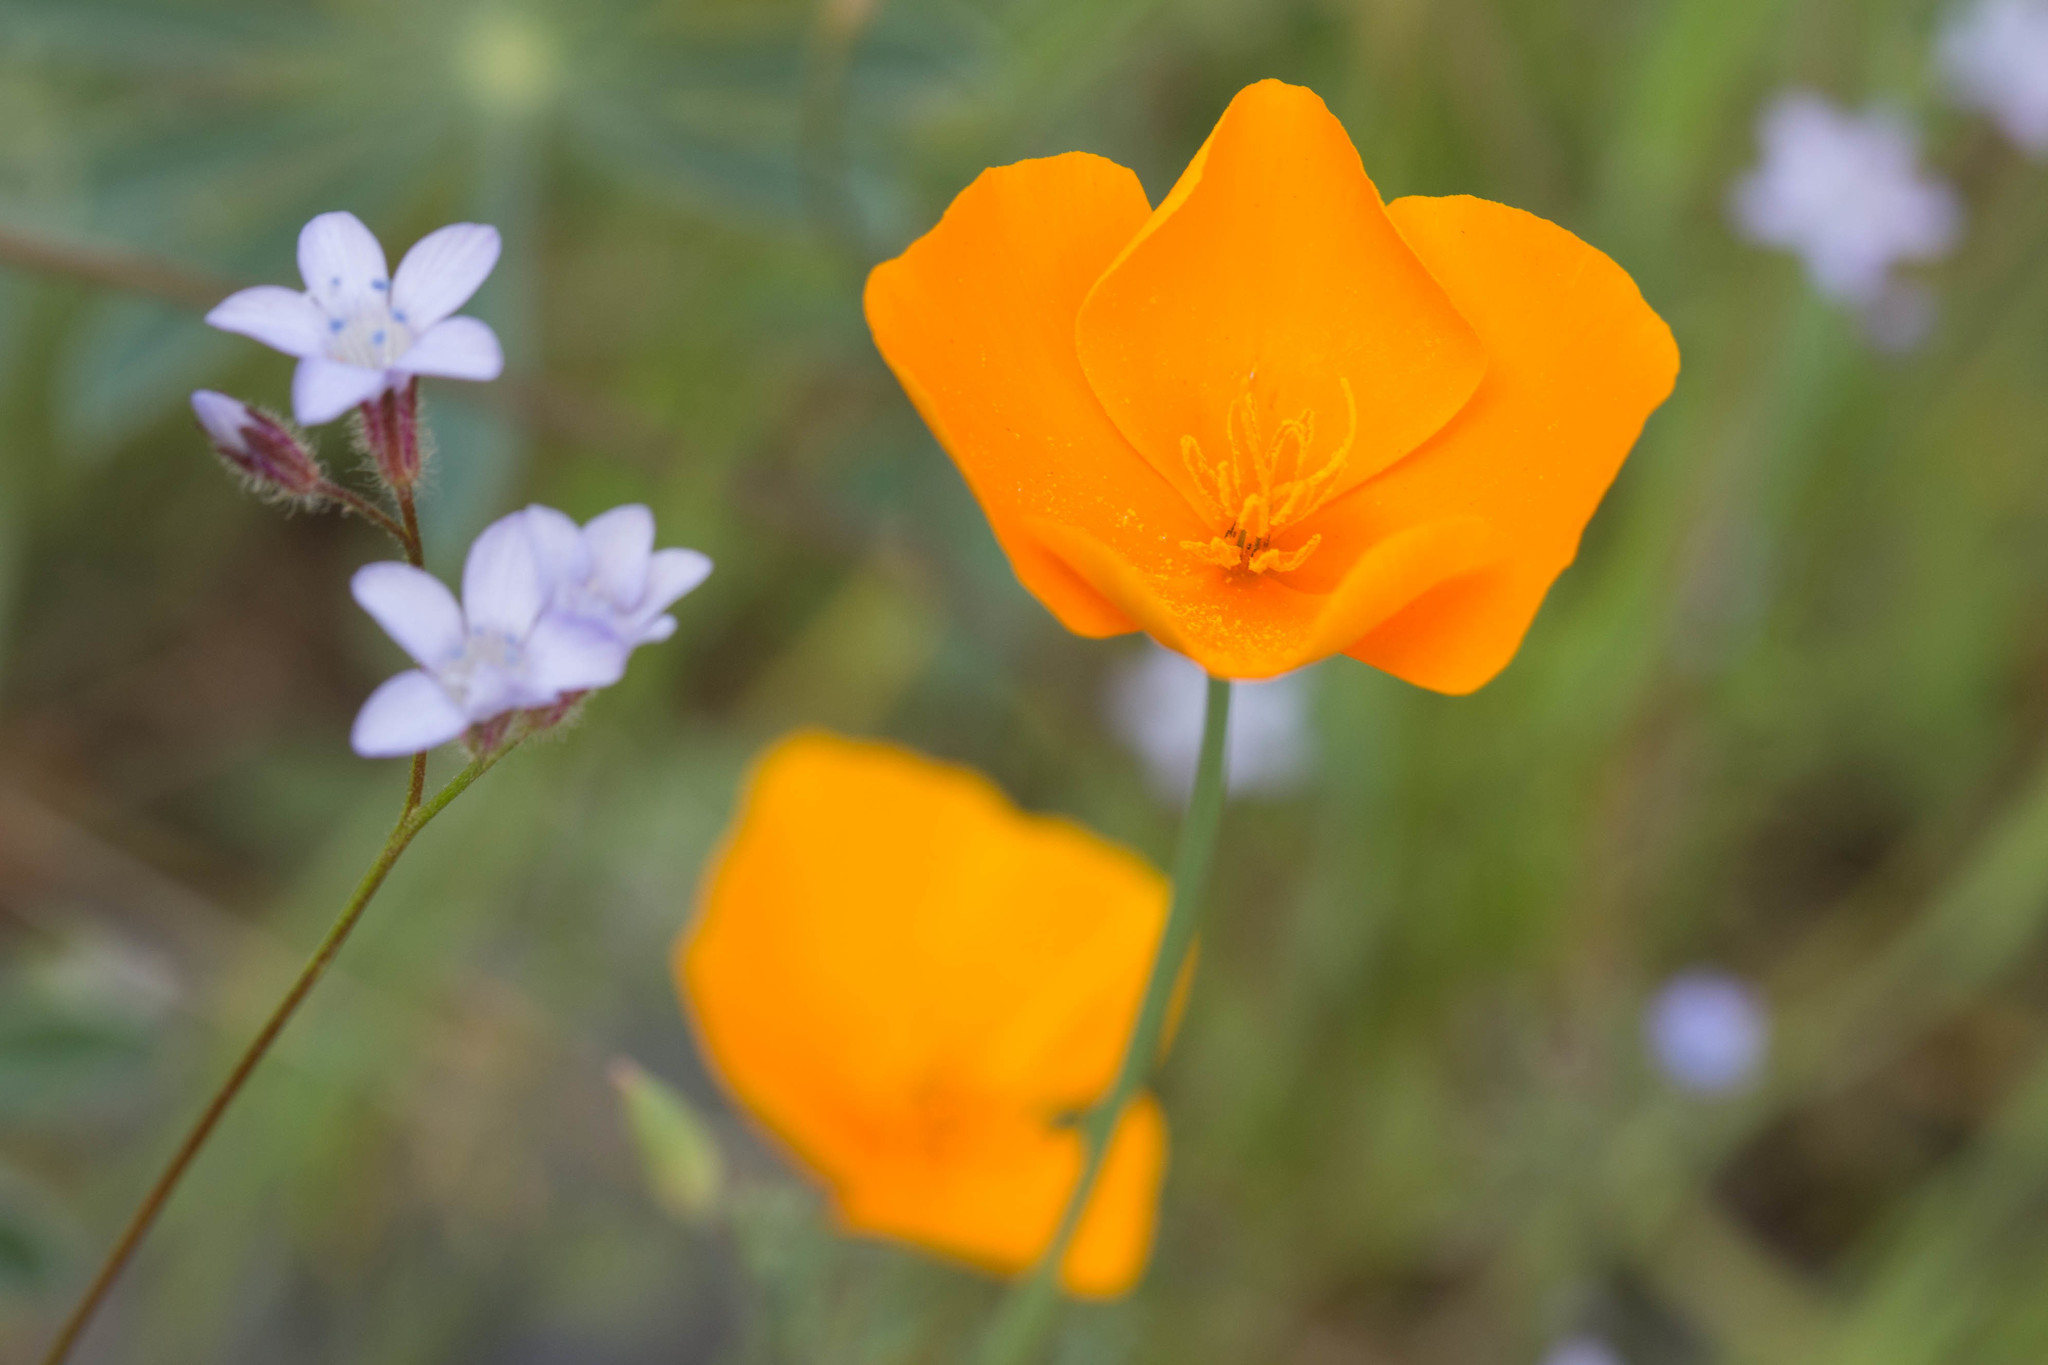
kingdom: Plantae
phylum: Tracheophyta
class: Magnoliopsida
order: Ranunculales
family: Papaveraceae
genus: Eschscholzia
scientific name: Eschscholzia caespitosa
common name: Tufted california-poppy
